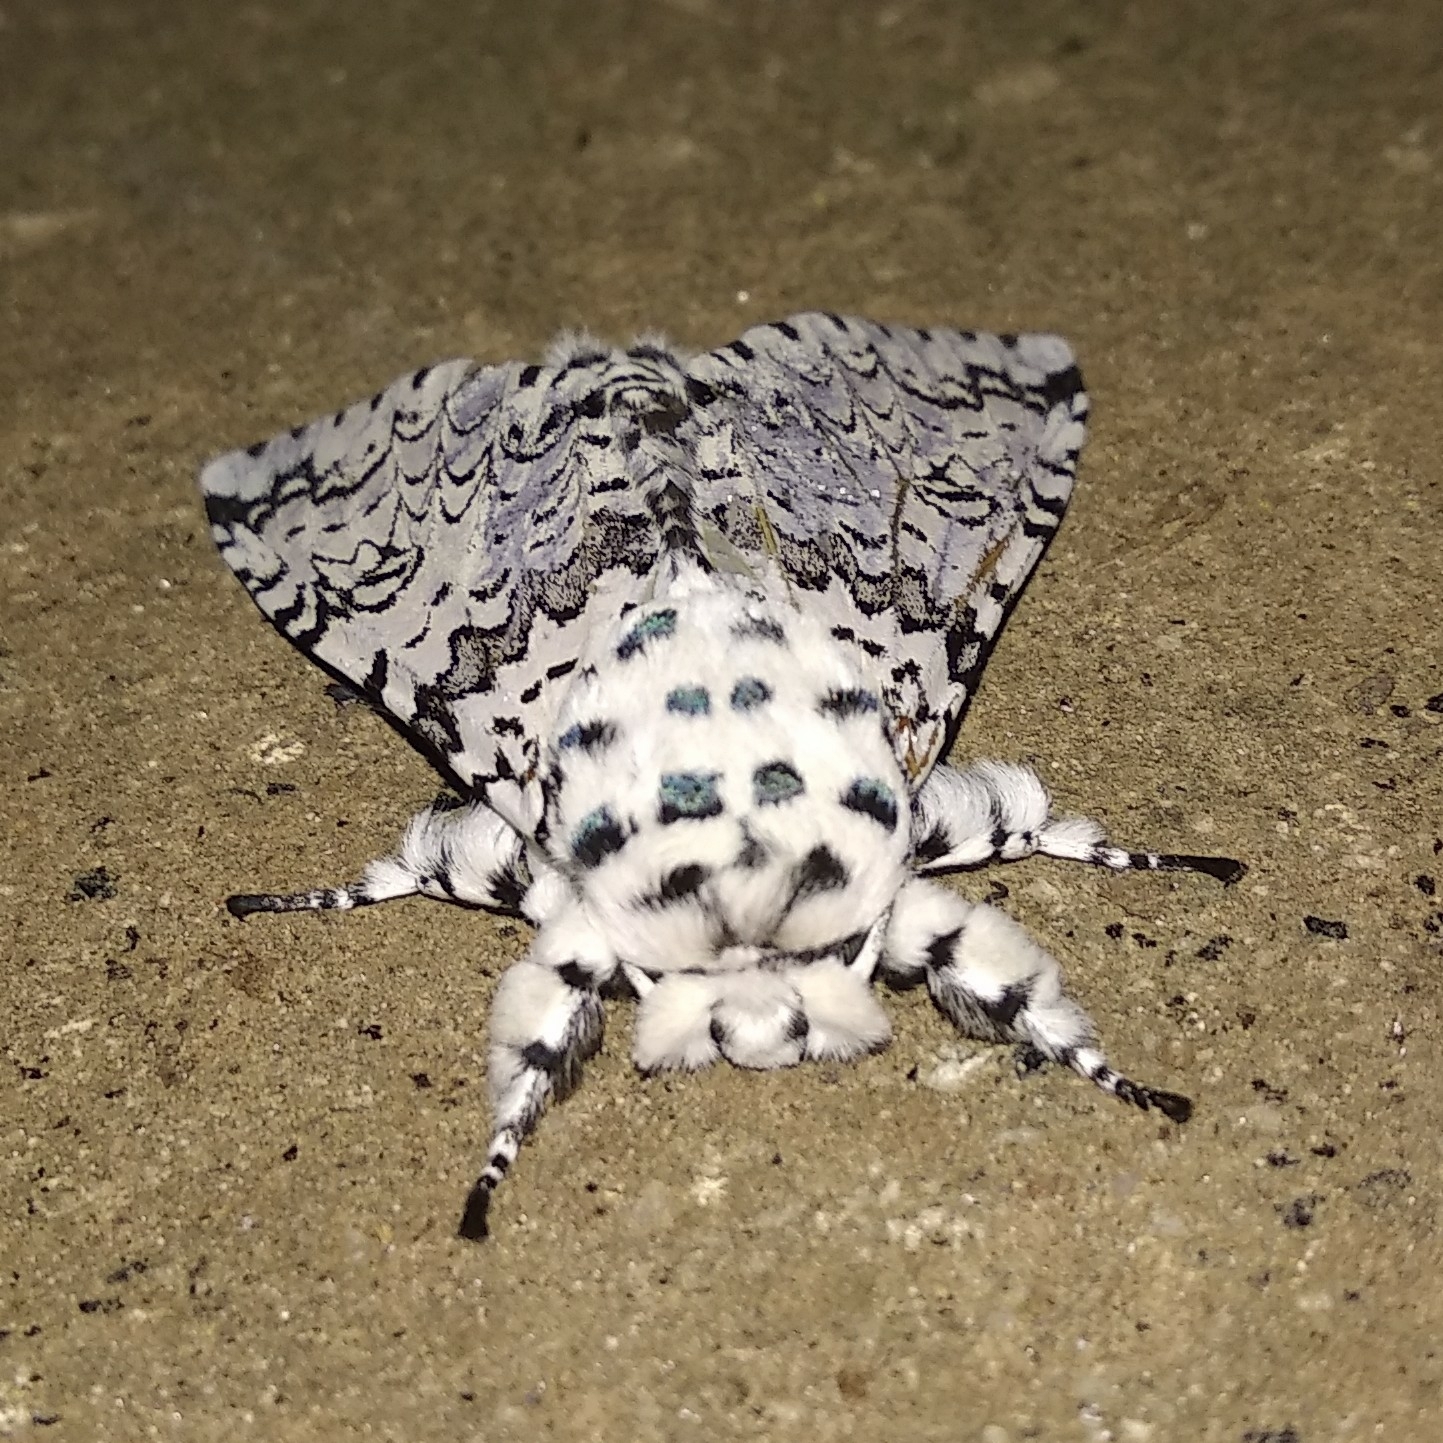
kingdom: Animalia
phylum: Arthropoda
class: Insecta
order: Lepidoptera
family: Notodontidae
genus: Kamalia
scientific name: Kamalia kandyia
